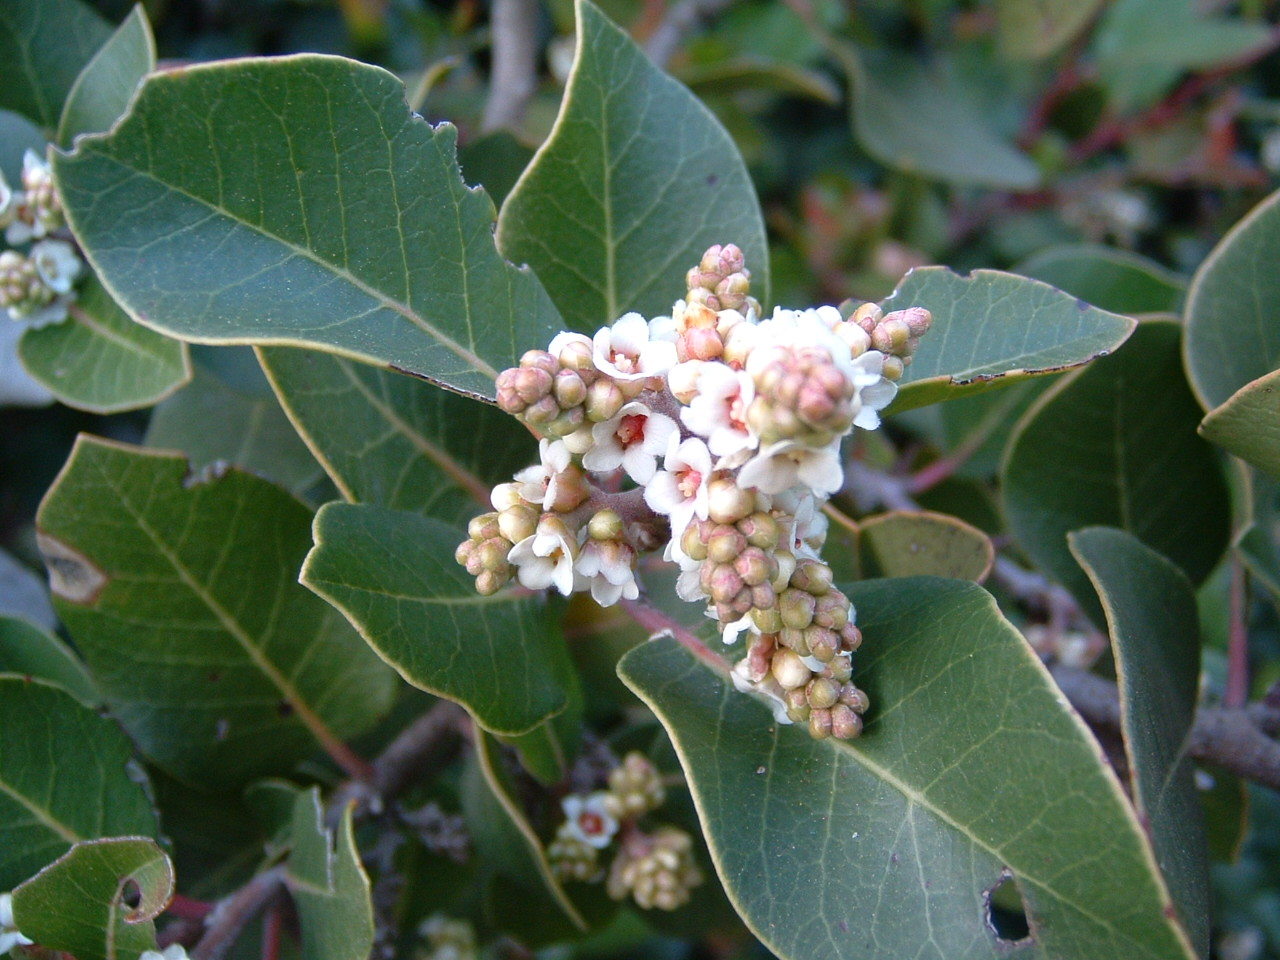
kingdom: Plantae
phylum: Tracheophyta
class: Magnoliopsida
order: Sapindales
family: Anacardiaceae
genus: Rhus
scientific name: Rhus ovata
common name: Sugar sumac
